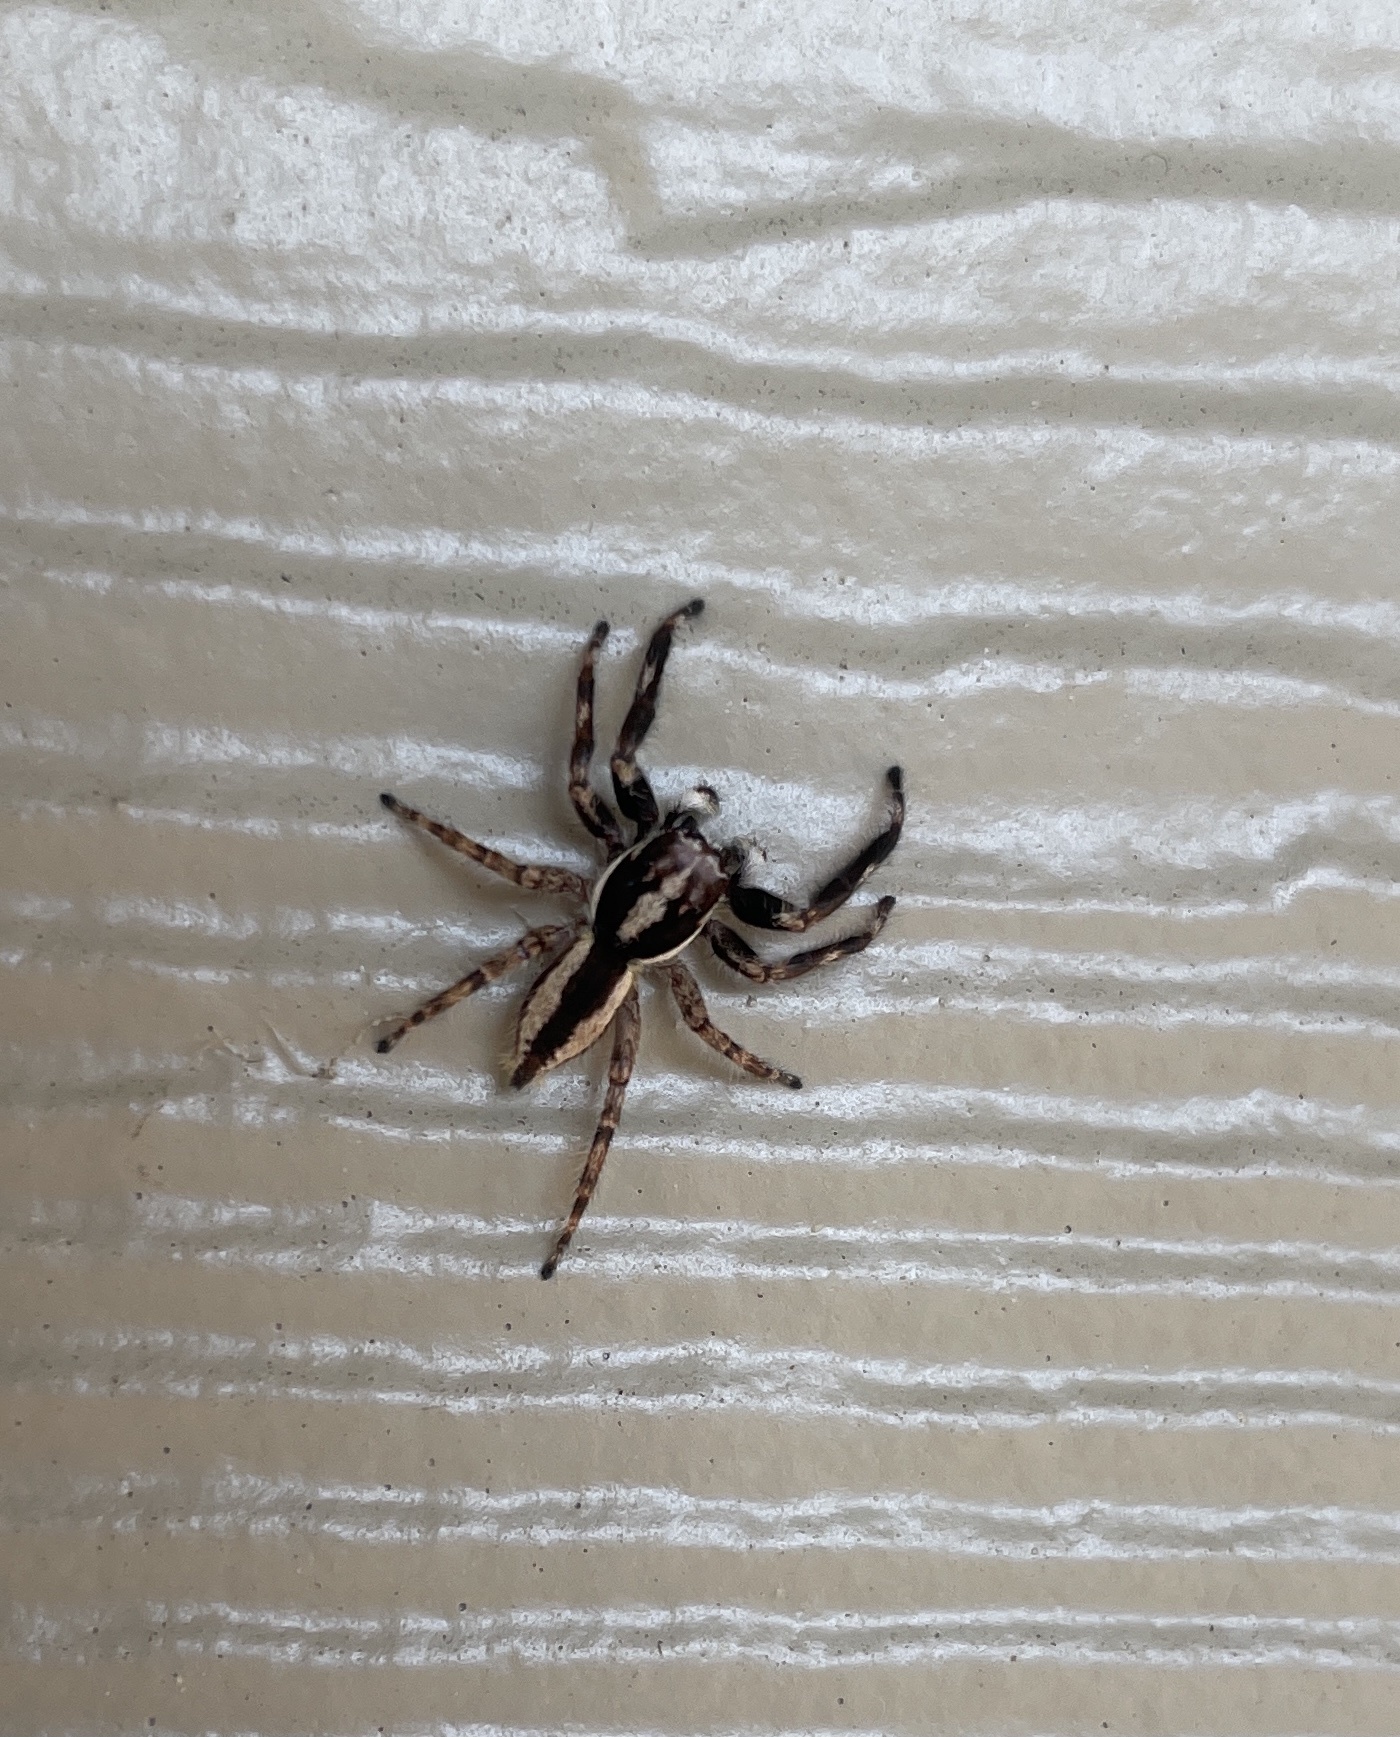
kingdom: Animalia
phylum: Arthropoda
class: Arachnida
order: Araneae
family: Salticidae
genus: Menemerus
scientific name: Menemerus bivittatus
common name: Gray wall jumper
